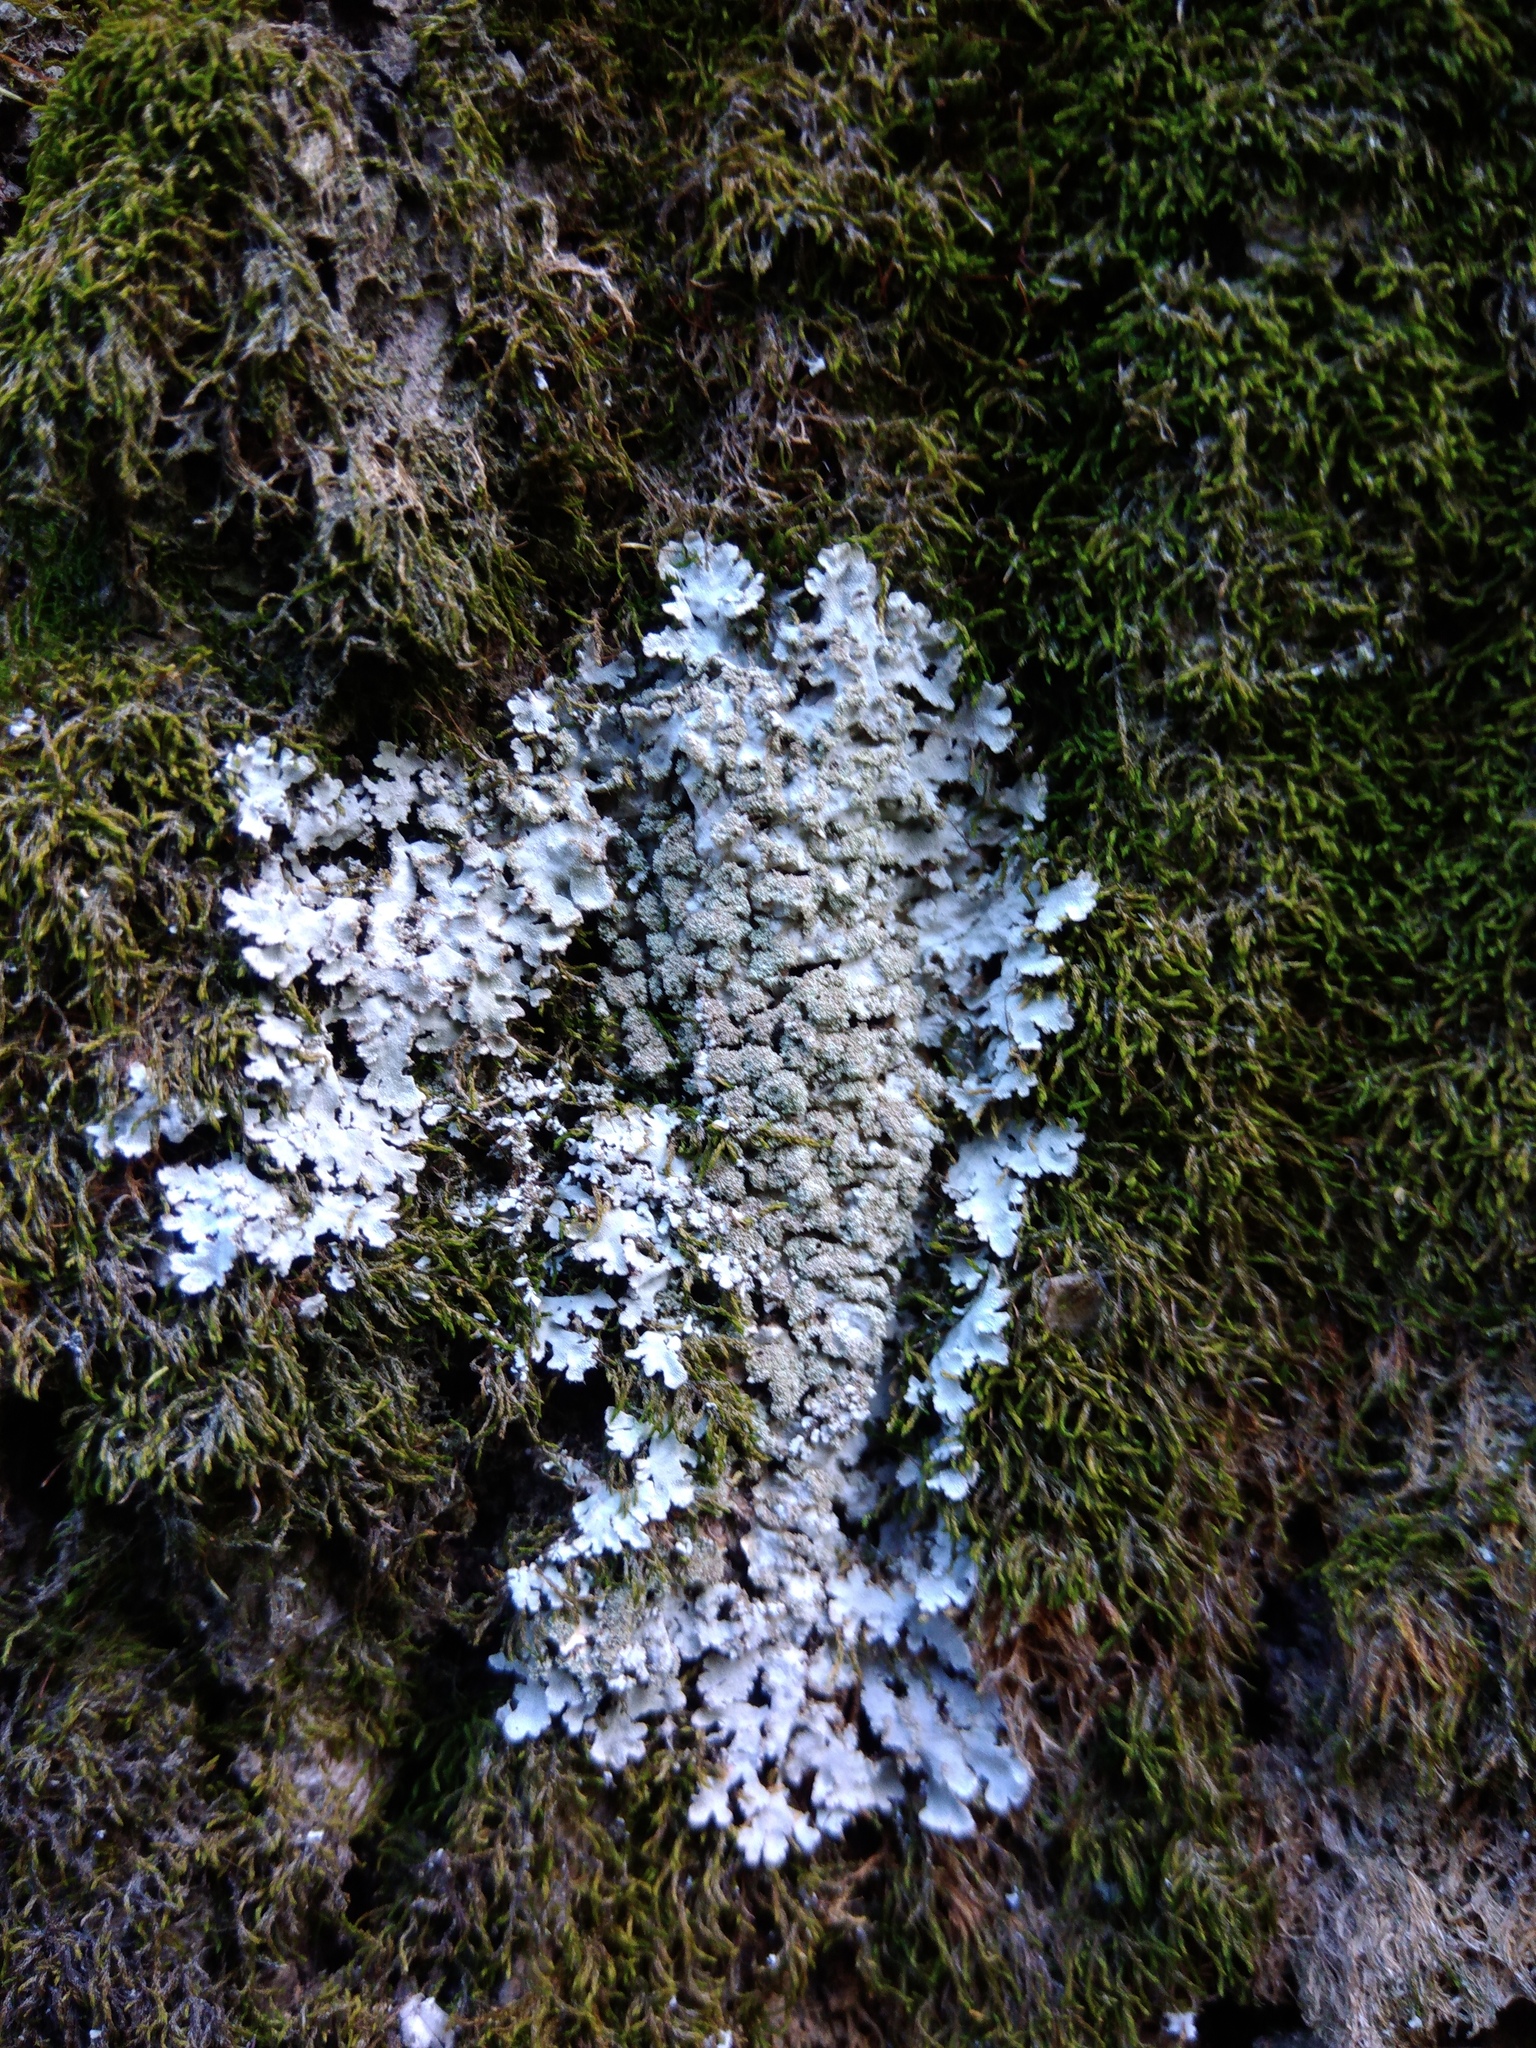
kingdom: Fungi
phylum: Ascomycota
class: Lecanoromycetes
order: Caliciales
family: Physciaceae
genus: Poeltonia
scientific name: Poeltonia grisea
